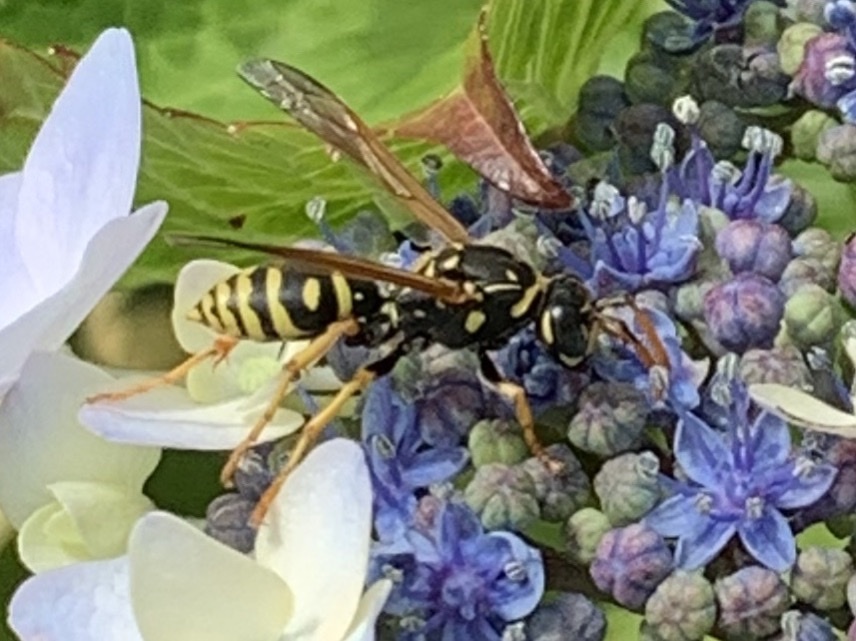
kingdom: Animalia
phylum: Arthropoda
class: Insecta
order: Hymenoptera
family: Eumenidae
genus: Polistes
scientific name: Polistes dominula
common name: Paper wasp
